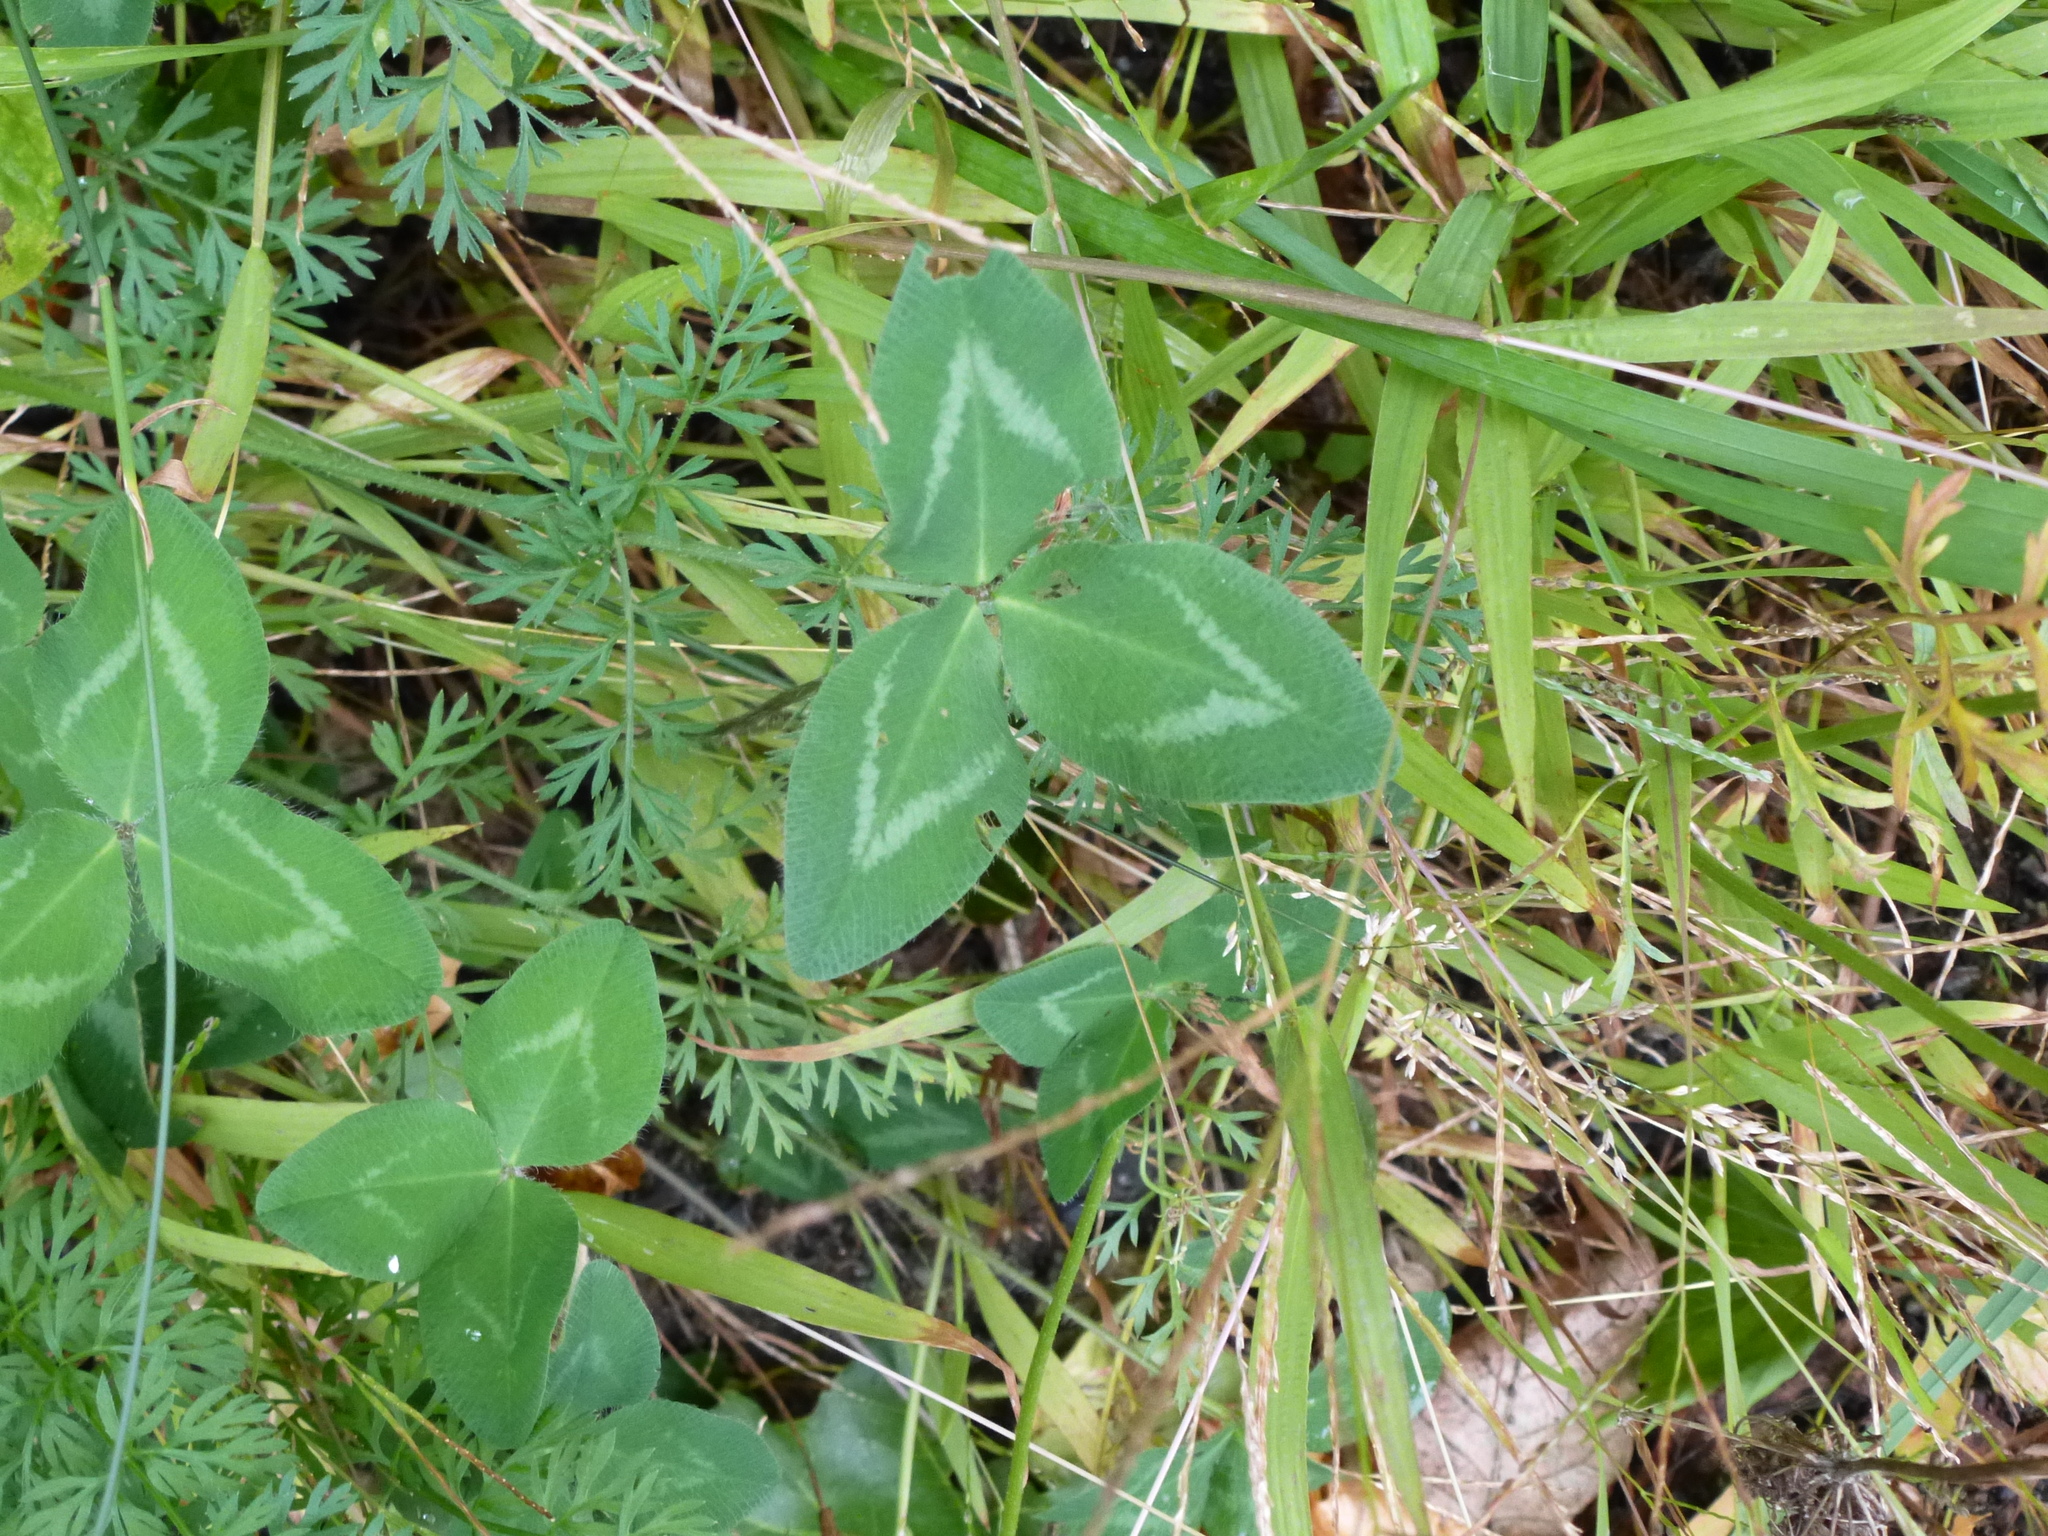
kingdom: Plantae
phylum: Tracheophyta
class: Magnoliopsida
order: Fabales
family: Fabaceae
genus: Trifolium
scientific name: Trifolium pratense
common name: Red clover
